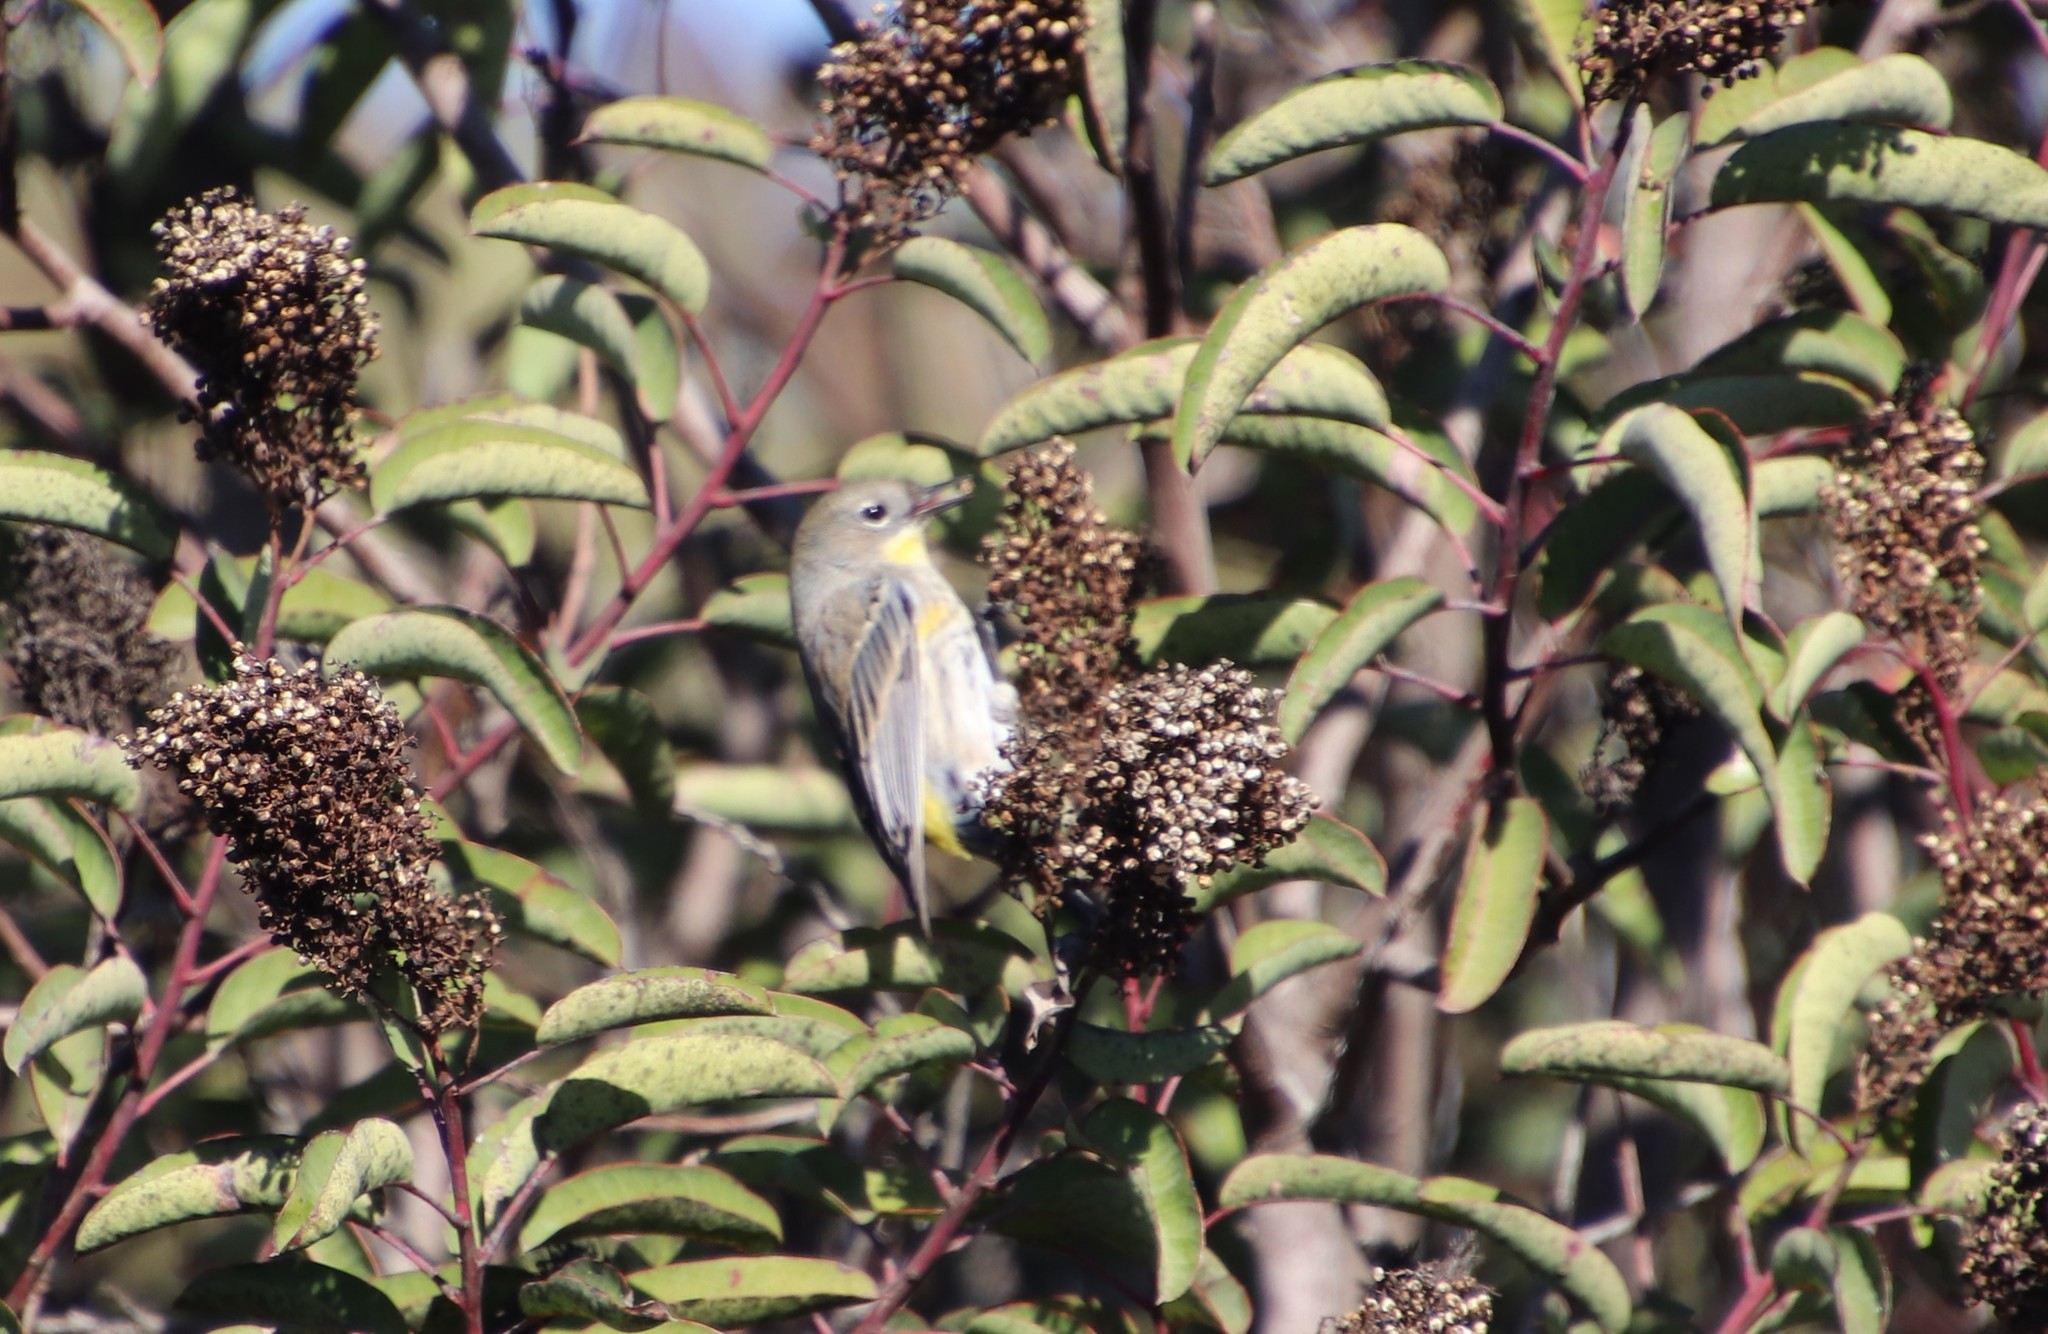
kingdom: Animalia
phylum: Chordata
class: Aves
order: Passeriformes
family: Parulidae
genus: Setophaga
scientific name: Setophaga auduboni
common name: Audubon's warbler
